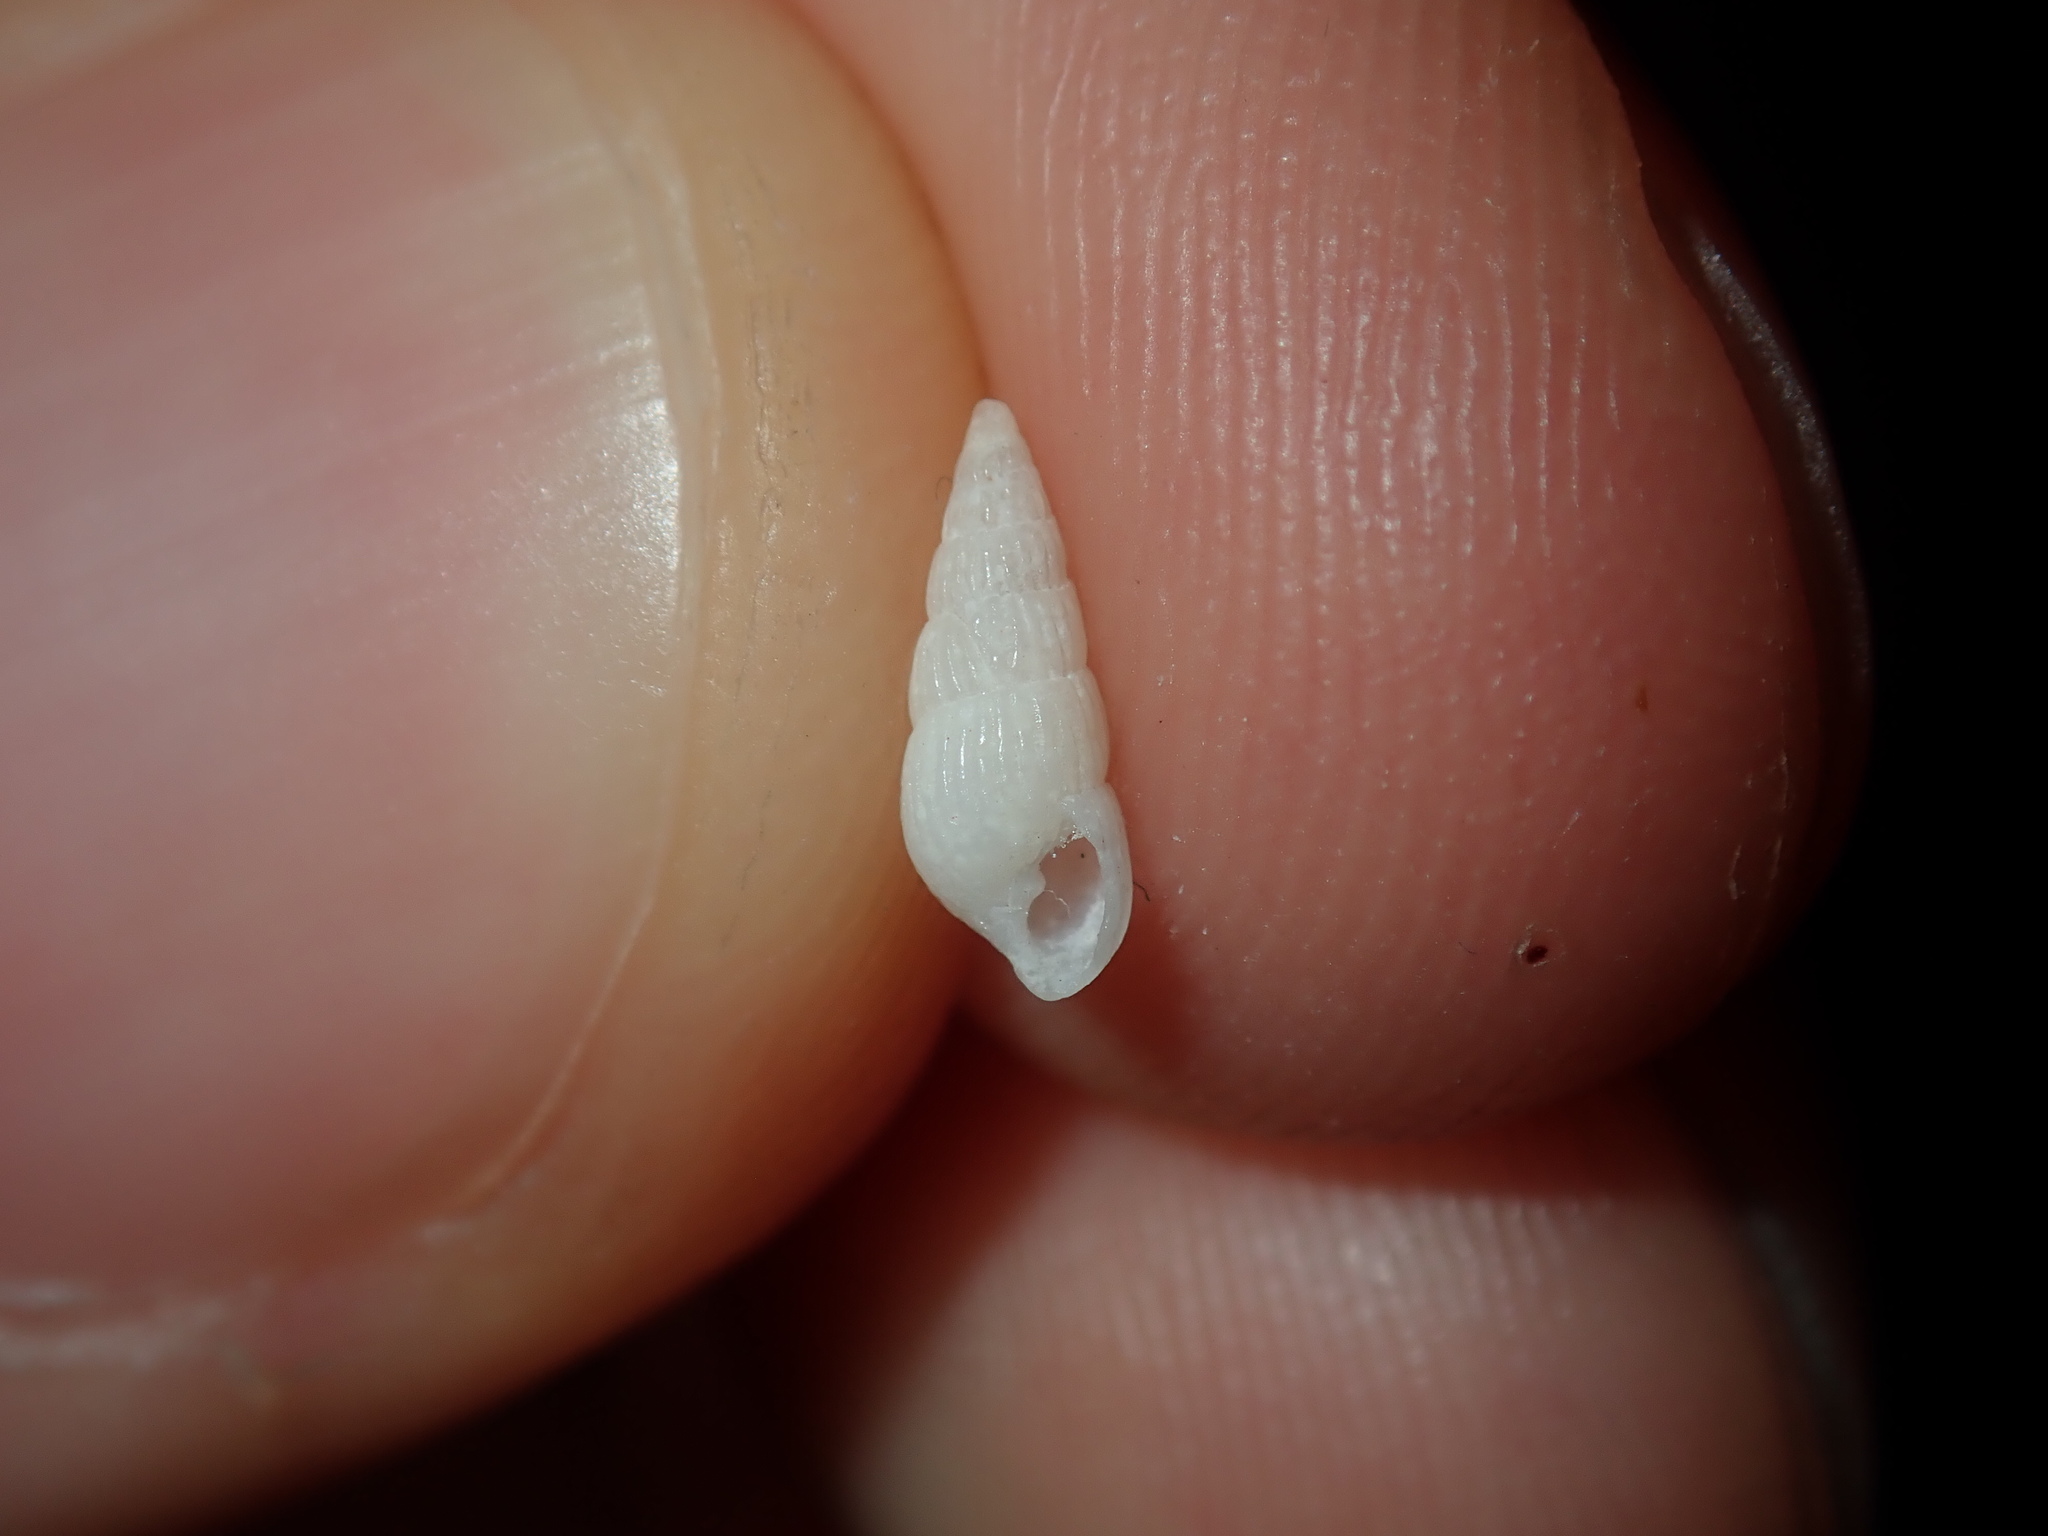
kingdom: Animalia
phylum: Mollusca
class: Gastropoda
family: Pyramidellidae
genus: Pyrgulina
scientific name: Pyrgulina pupaeformis
